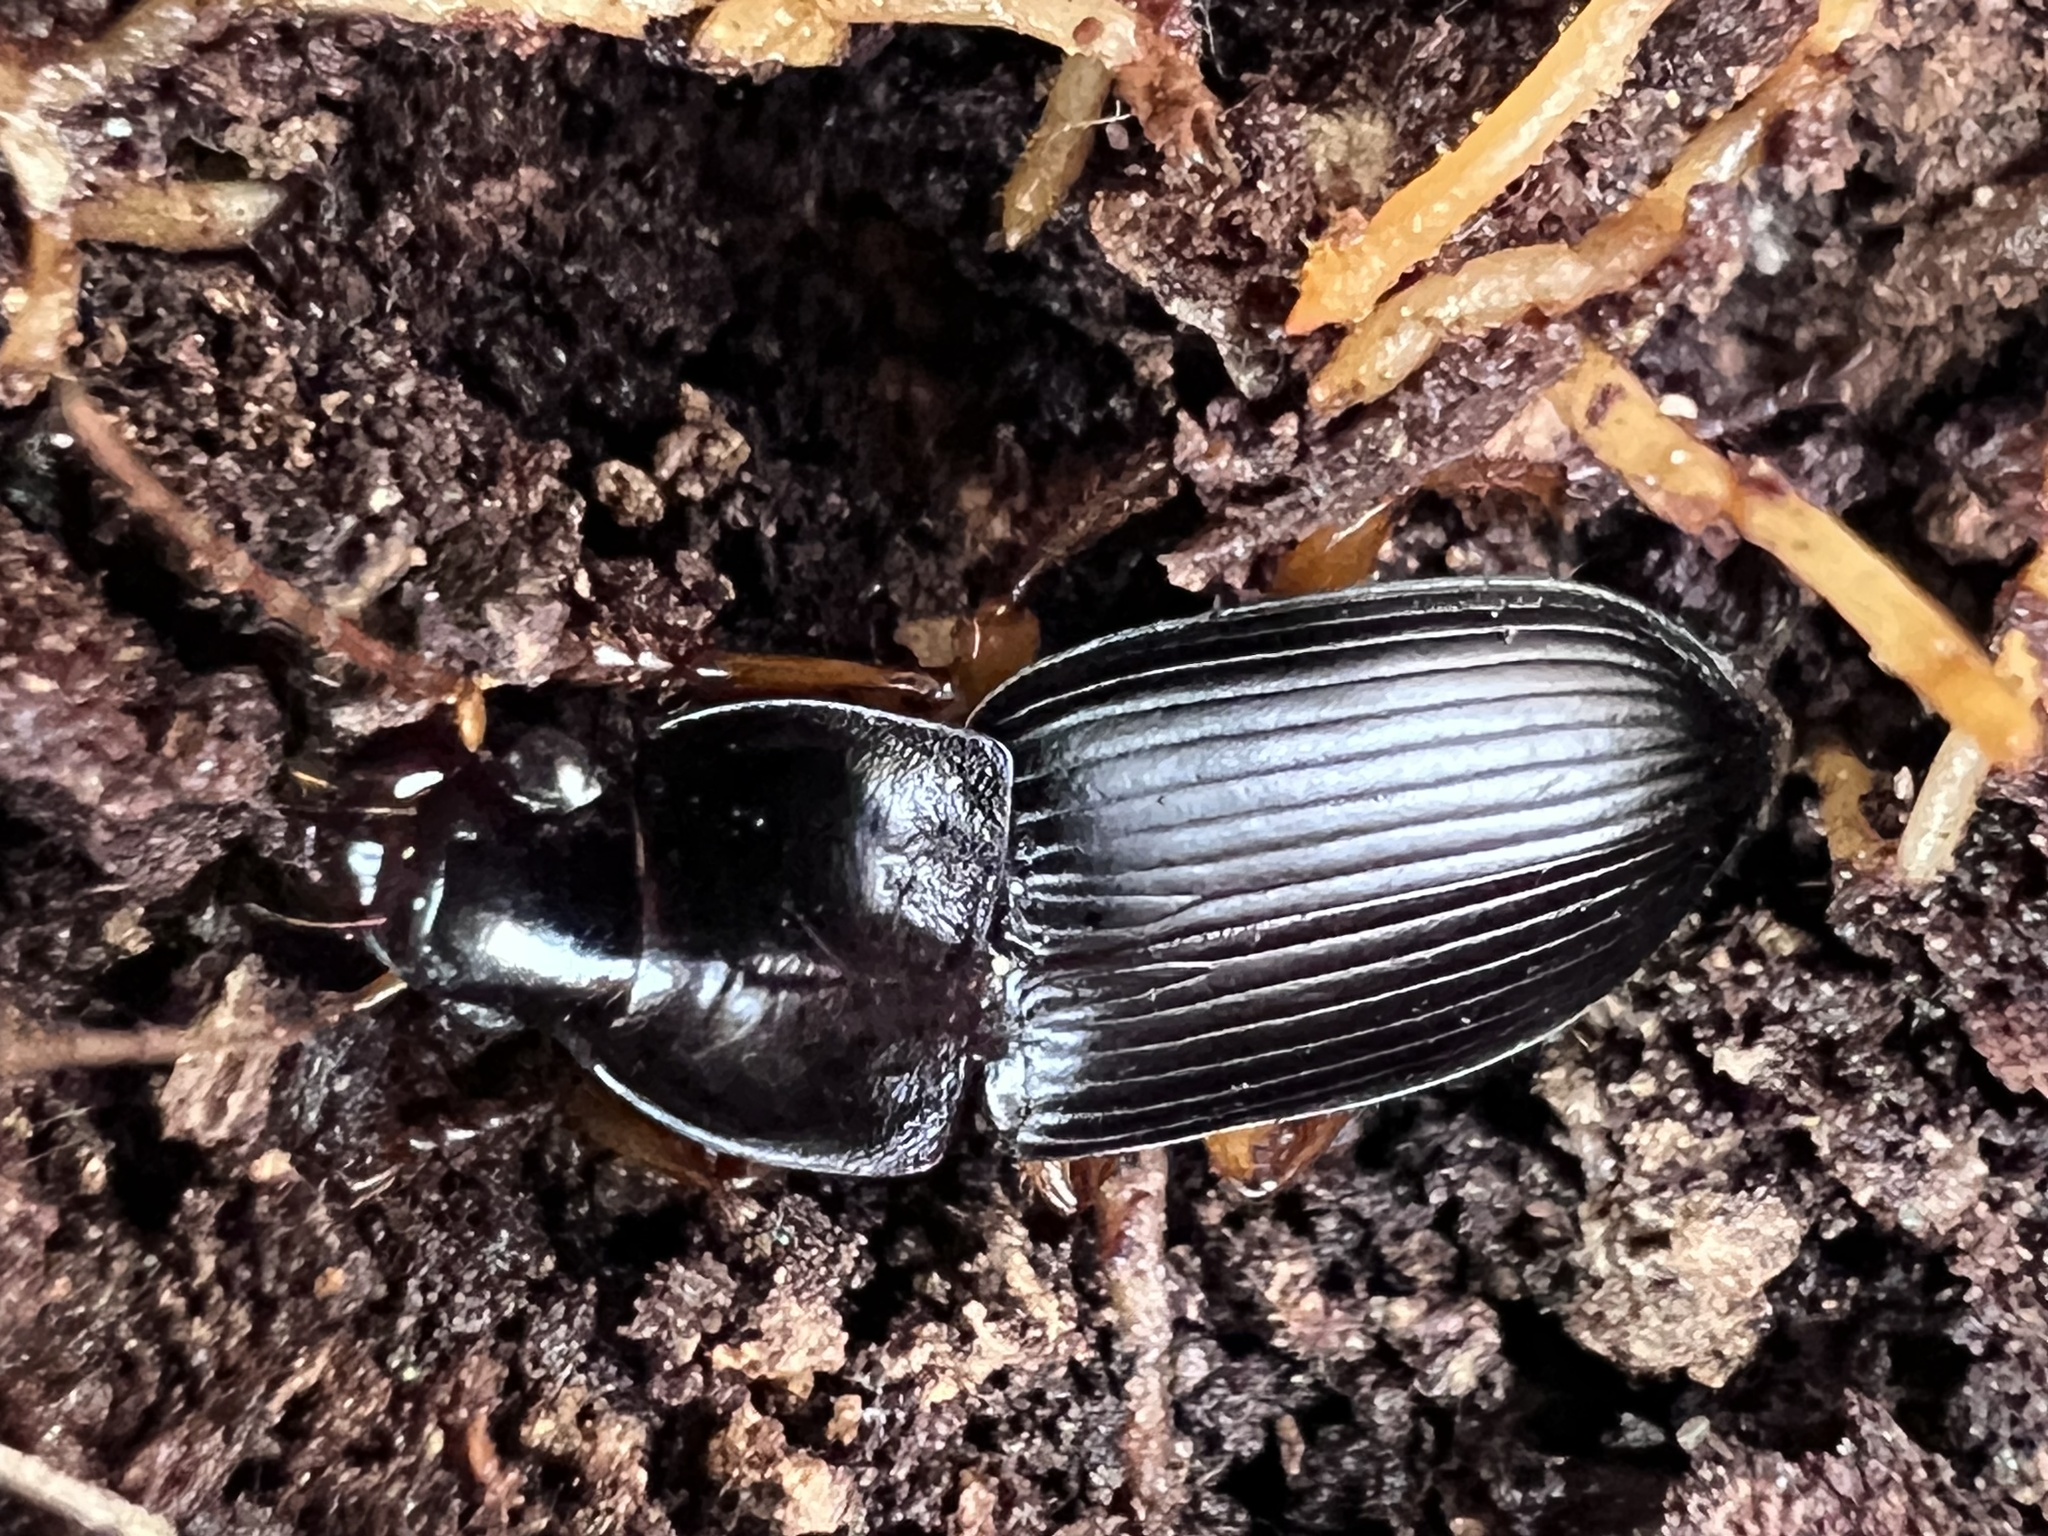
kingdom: Animalia
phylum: Arthropoda
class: Insecta
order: Coleoptera
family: Carabidae
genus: Harpalus
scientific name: Harpalus pensylvanicus
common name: Pennsylvania dingy ground beetle
